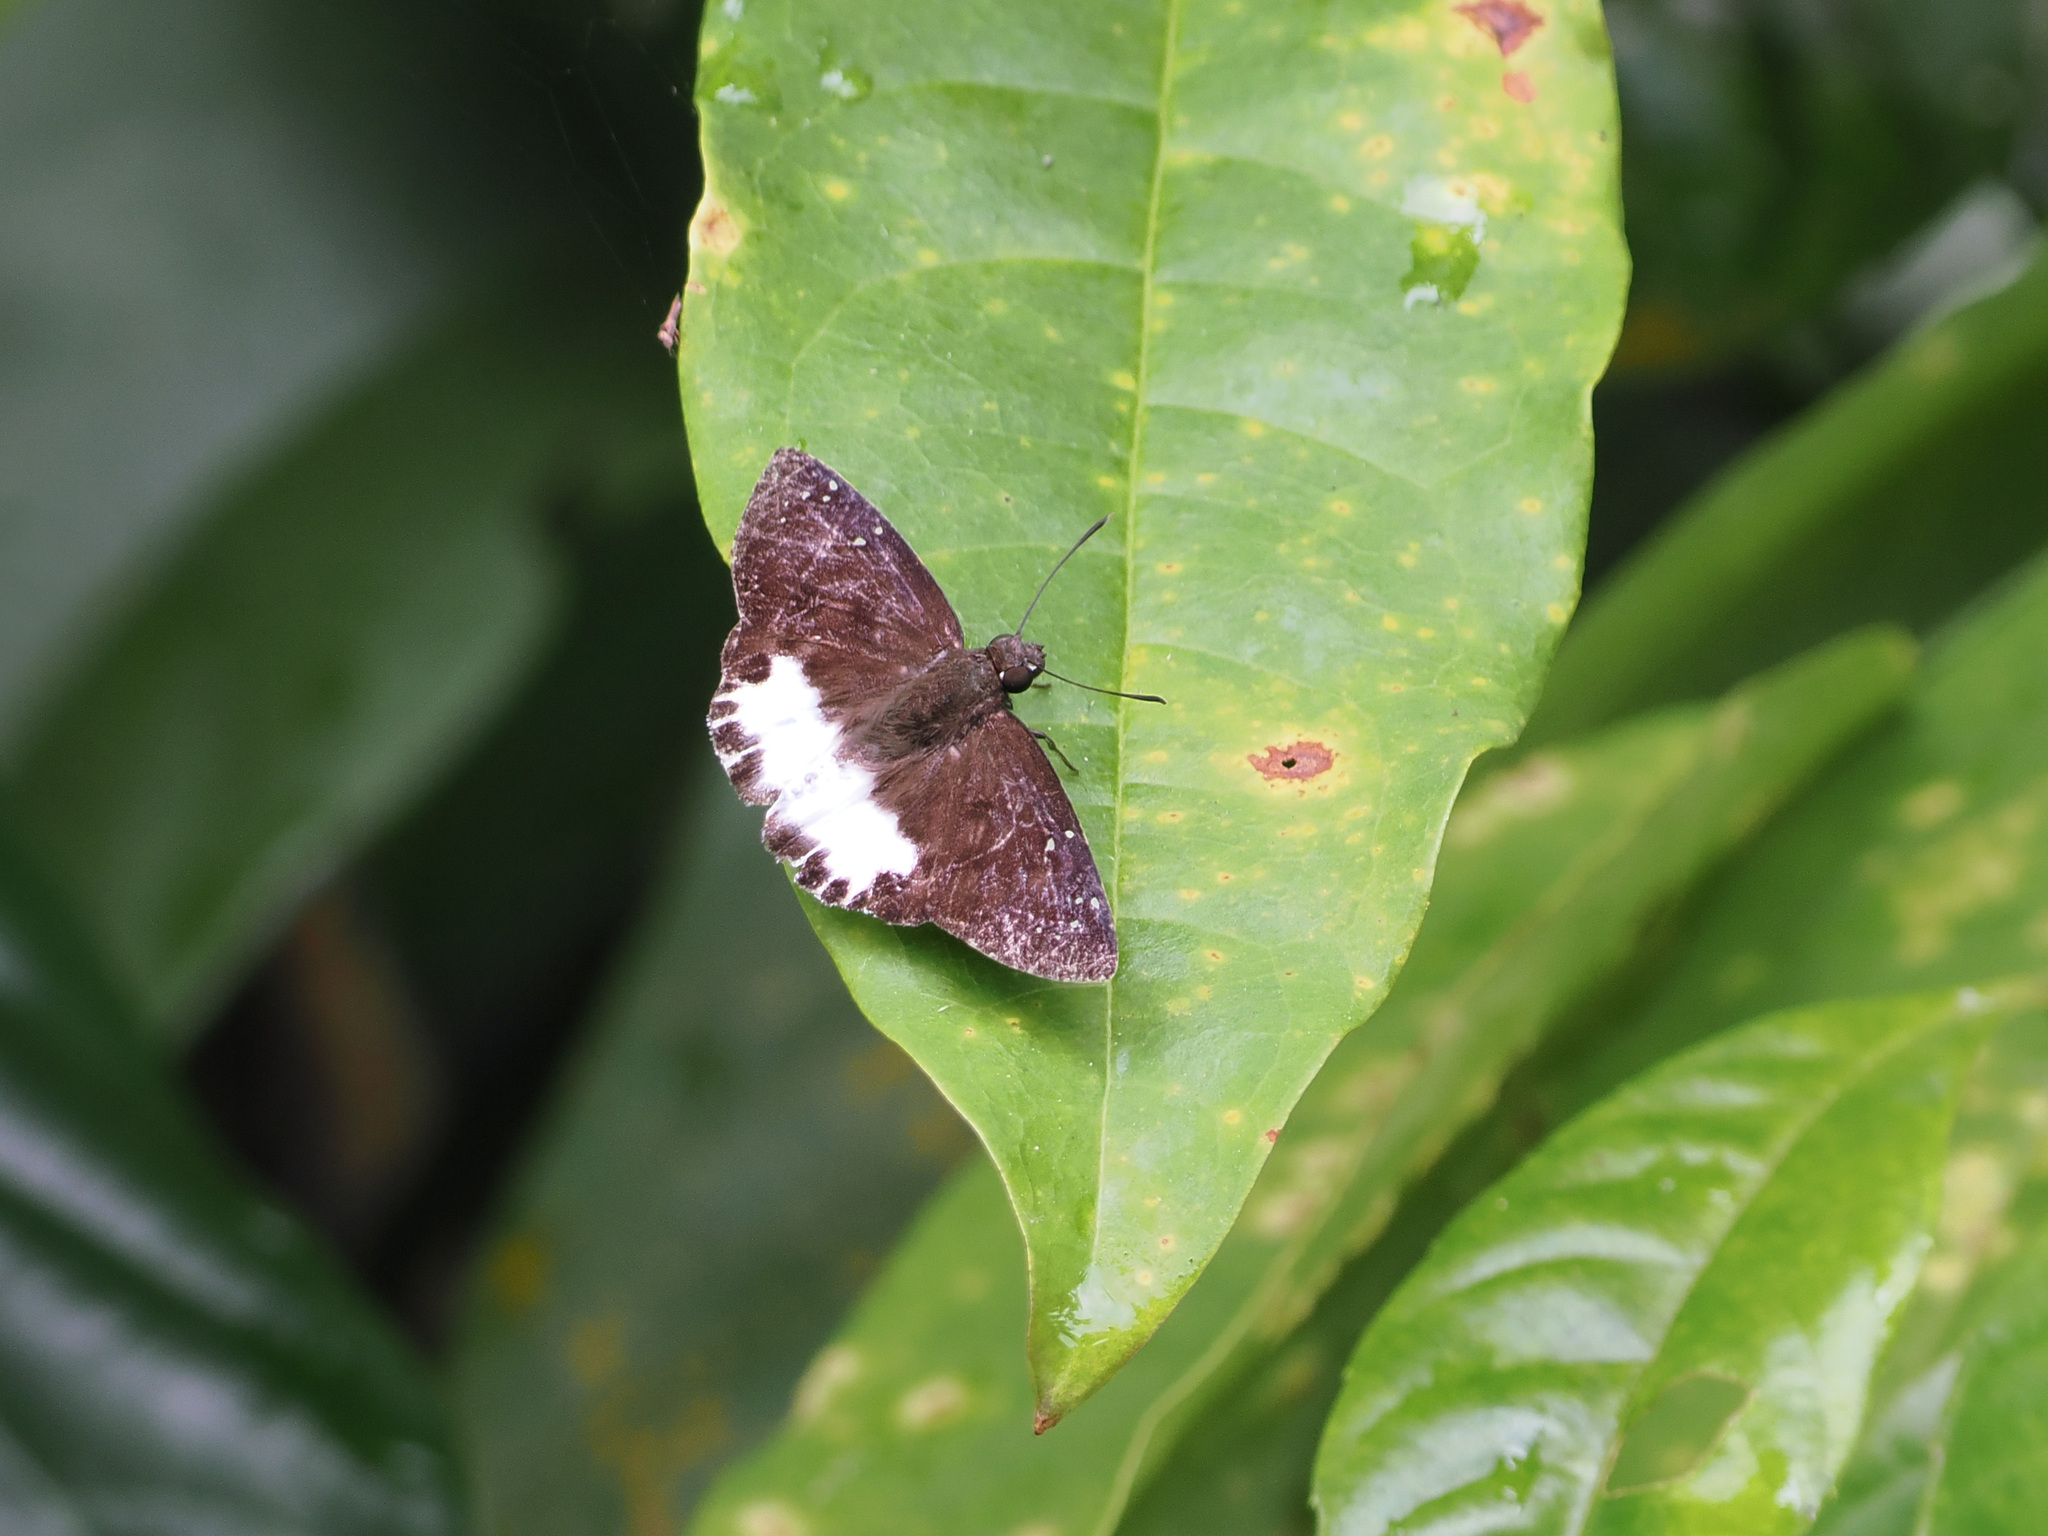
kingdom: Animalia
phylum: Arthropoda
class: Insecta
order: Lepidoptera
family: Hesperiidae
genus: Tagiades
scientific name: Tagiades litigiosa
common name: Water snow flat
